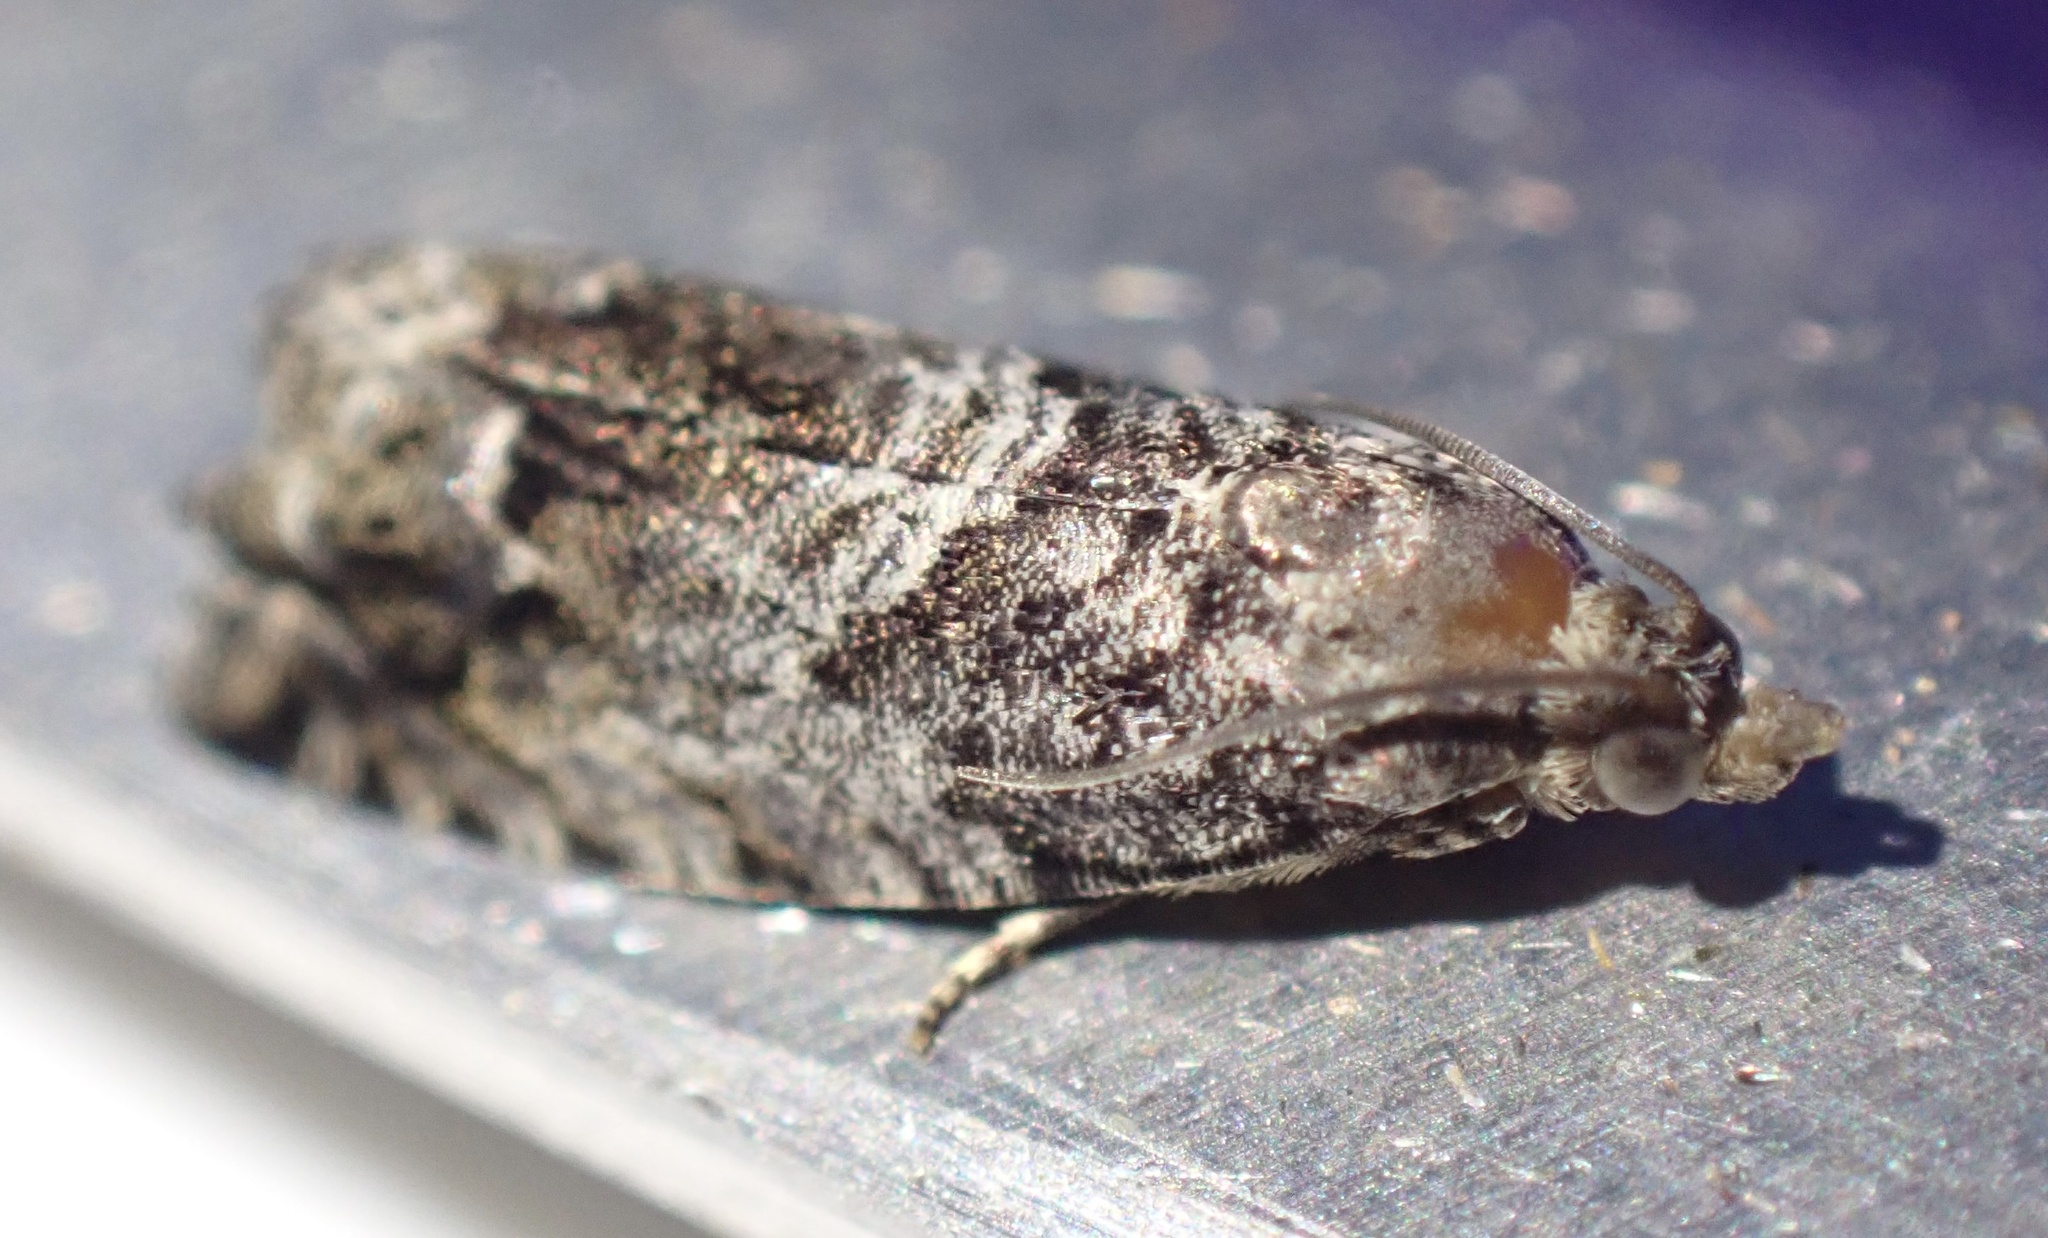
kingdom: Animalia
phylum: Arthropoda
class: Insecta
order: Lepidoptera
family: Tortricidae
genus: Cydia
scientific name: Cydia fagiglandana
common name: Large beech piercer
